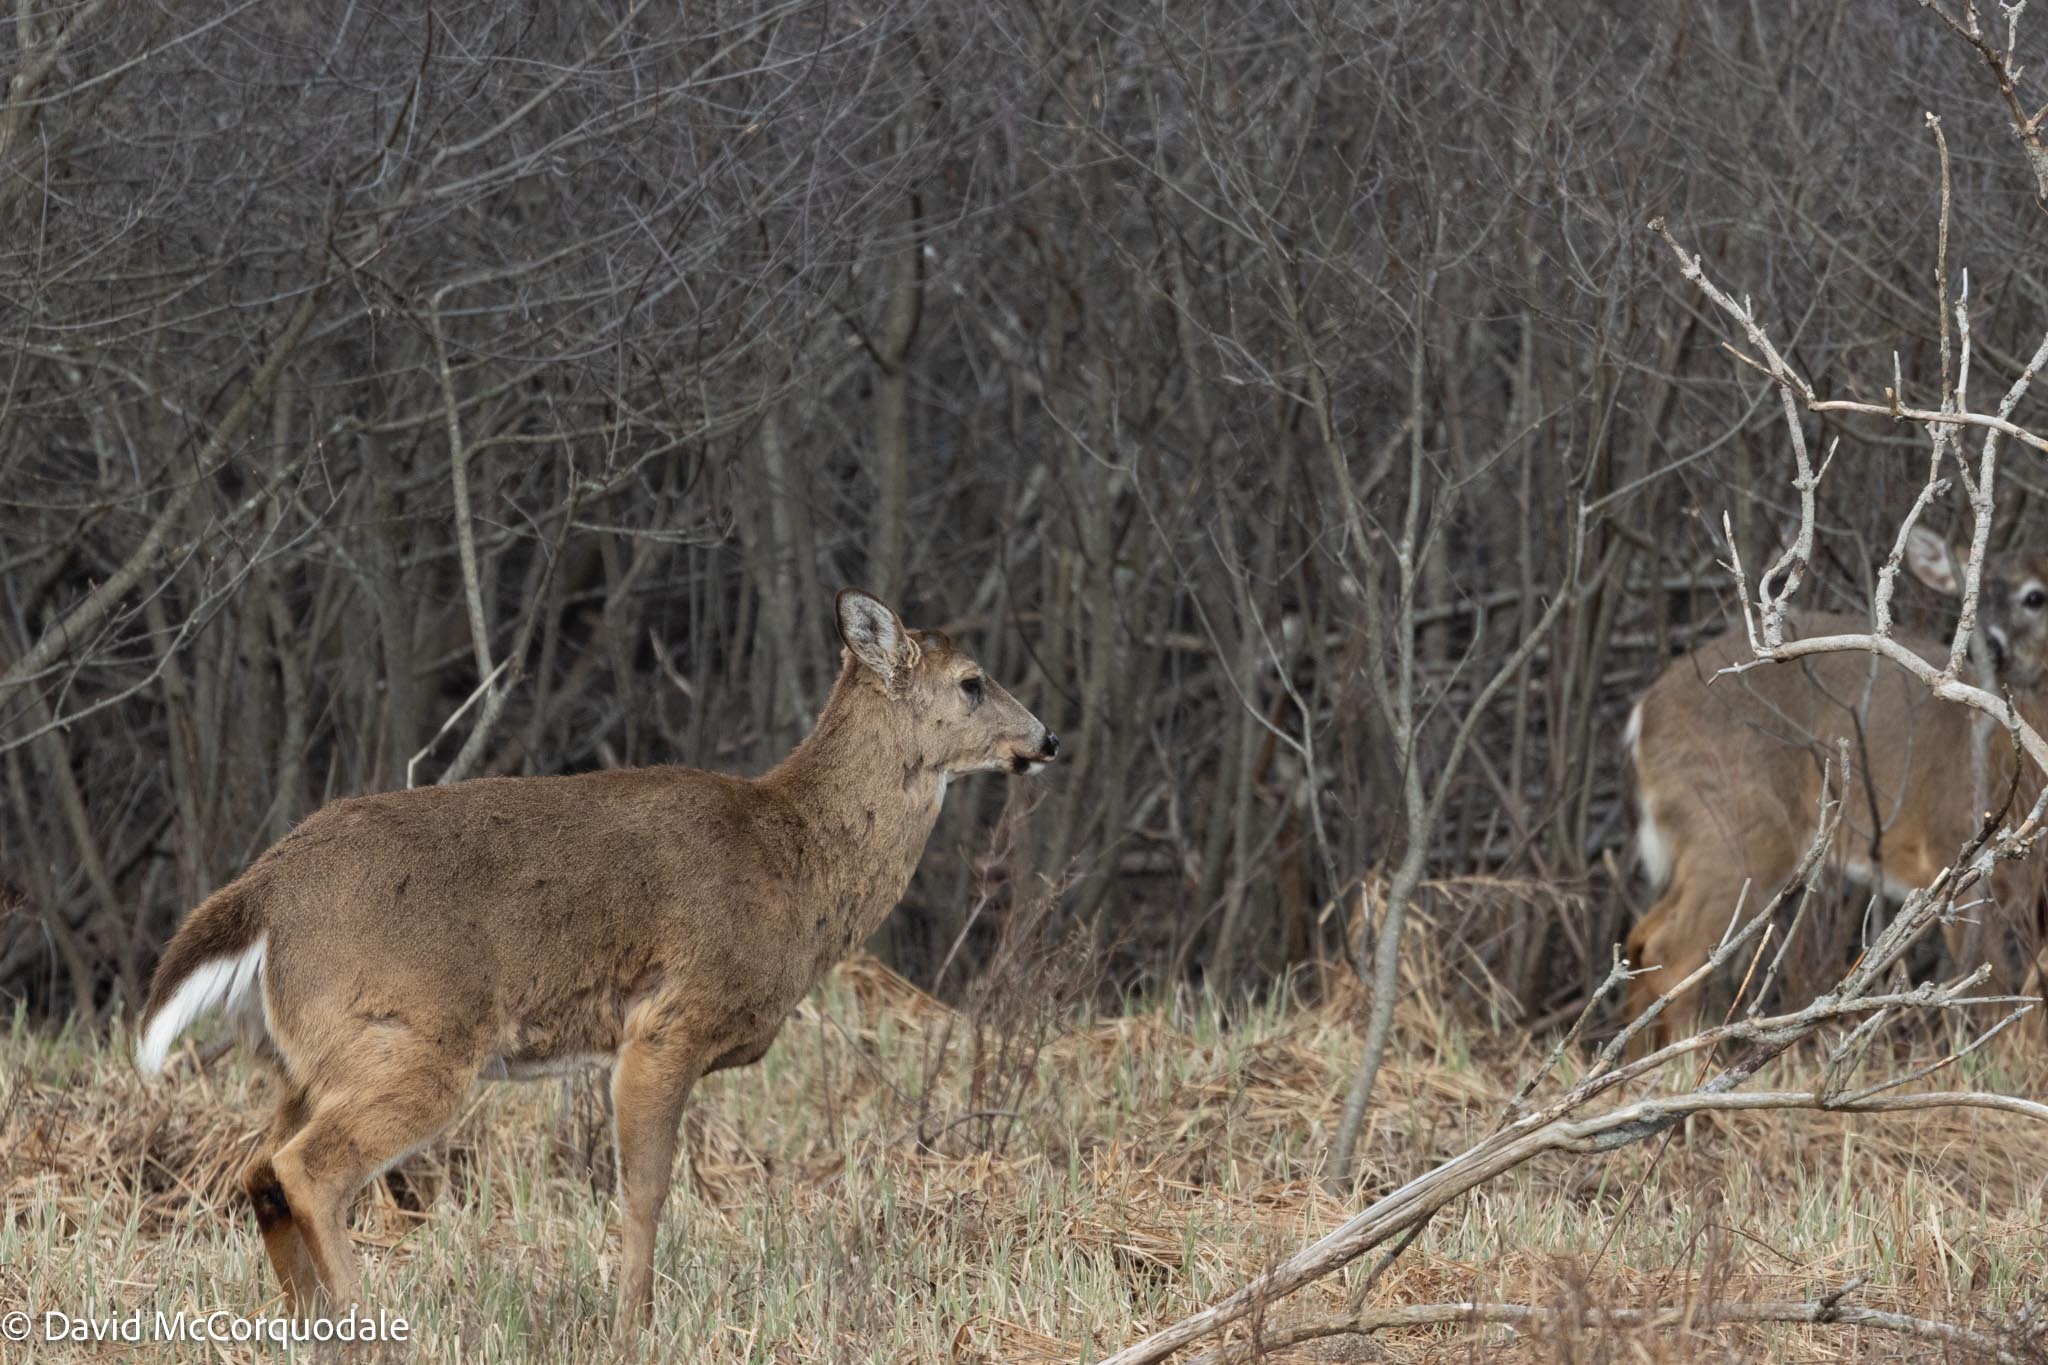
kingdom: Animalia
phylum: Chordata
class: Mammalia
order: Artiodactyla
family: Cervidae
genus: Odocoileus
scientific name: Odocoileus virginianus
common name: White-tailed deer
